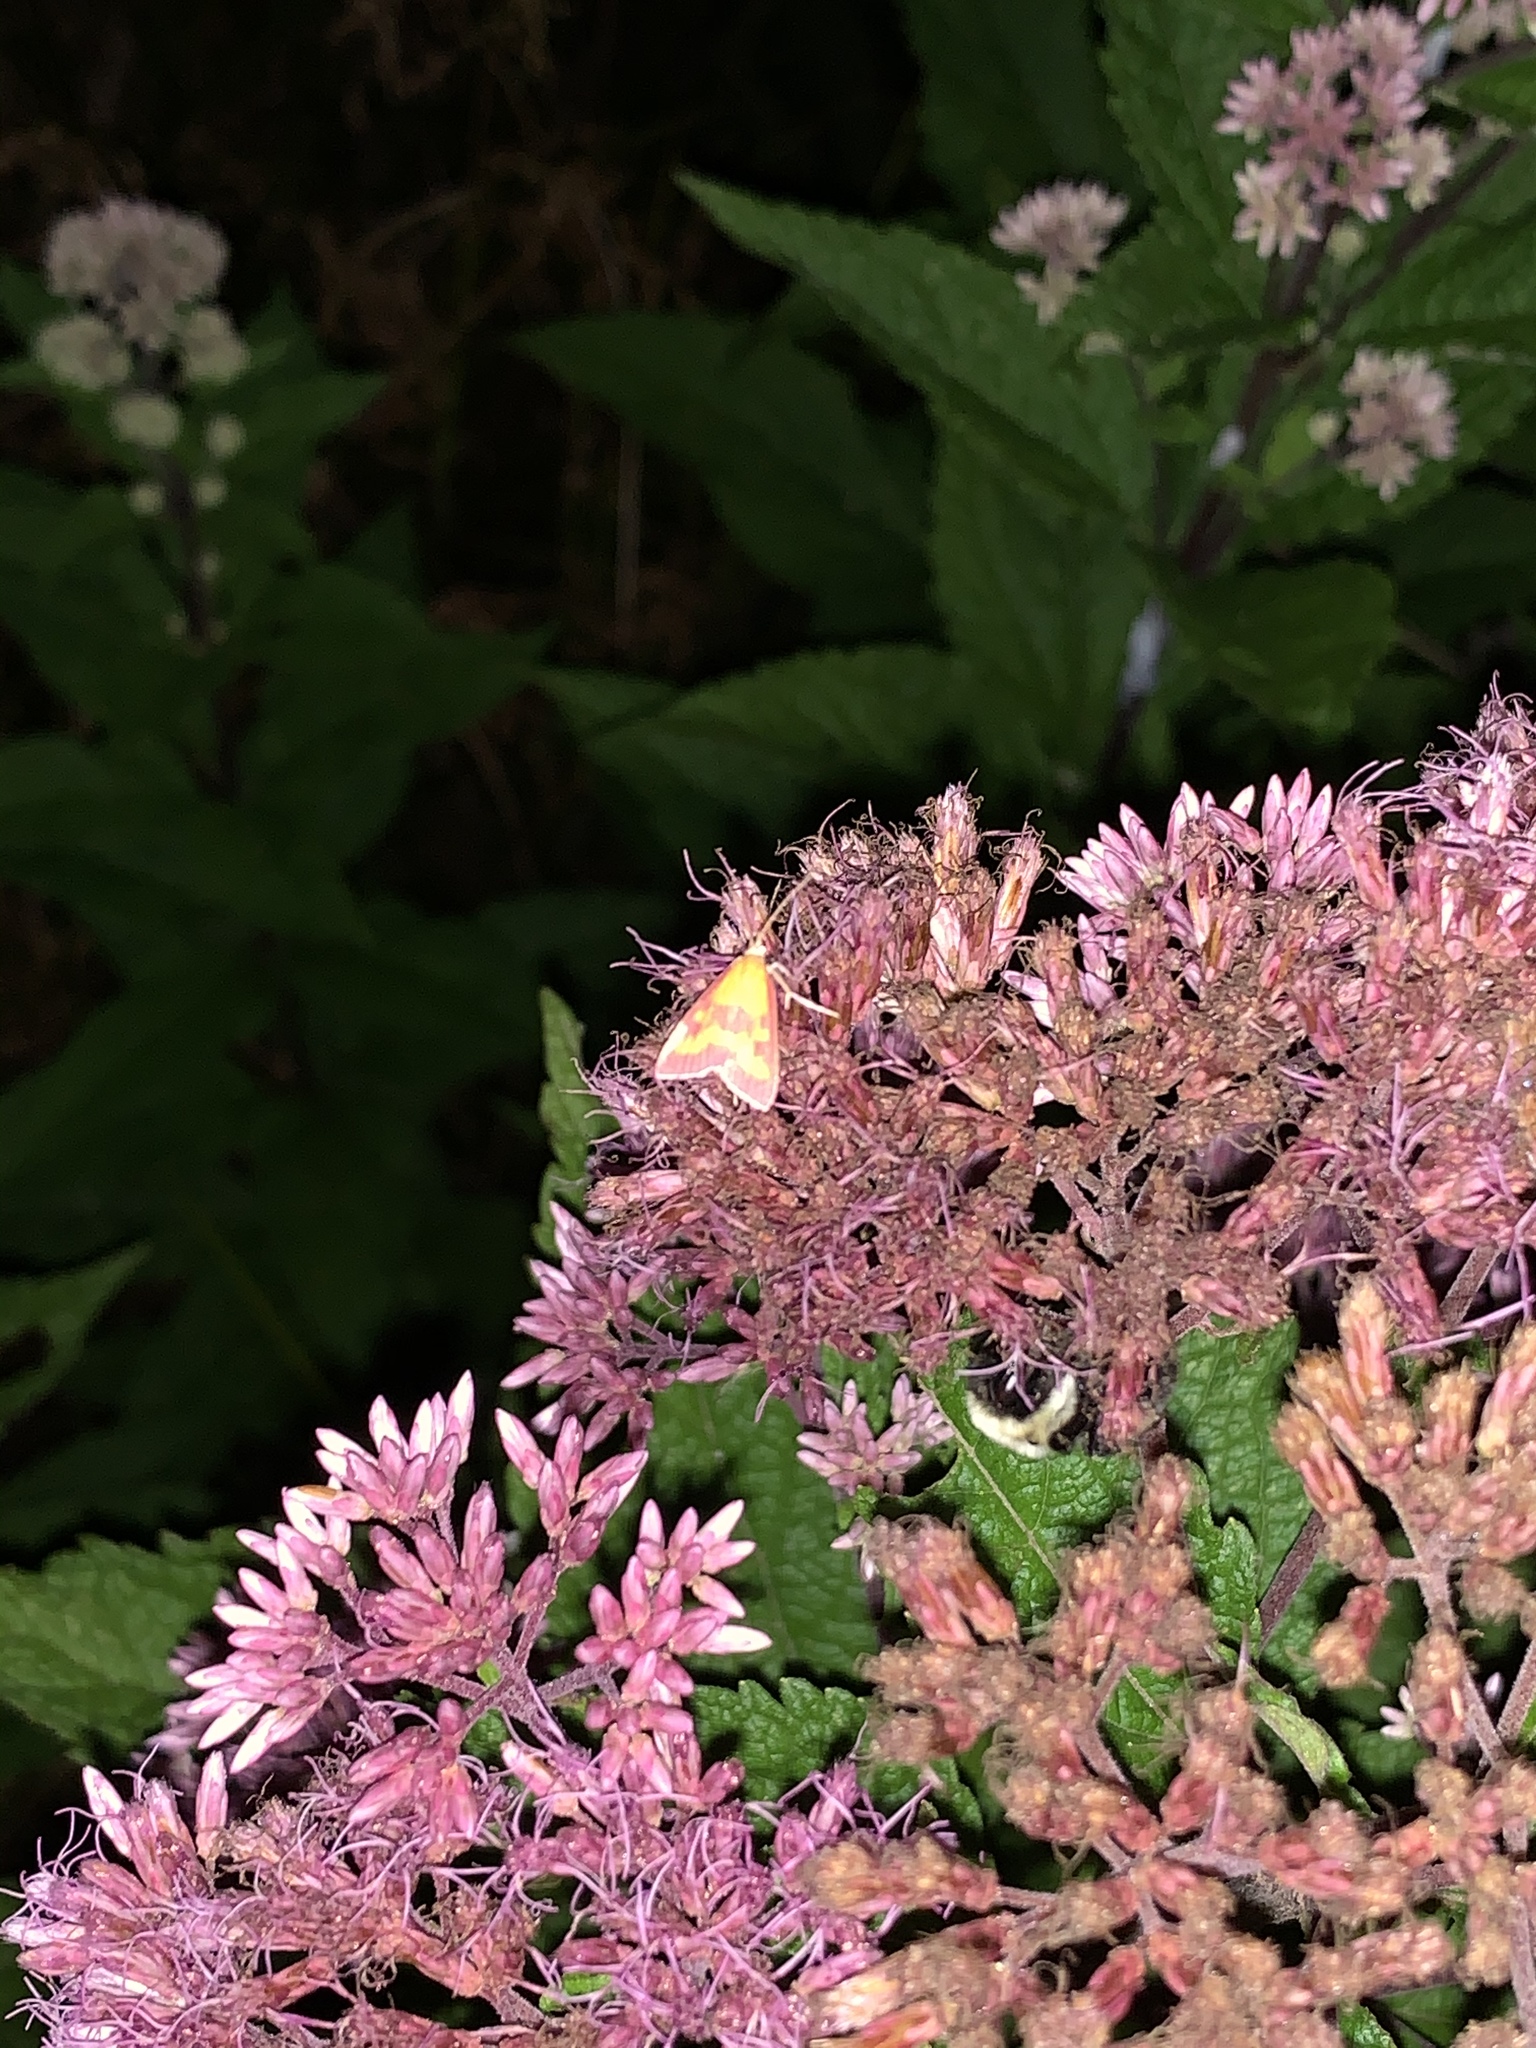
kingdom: Animalia
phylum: Arthropoda
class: Insecta
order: Lepidoptera
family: Crambidae
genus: Pyrausta
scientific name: Pyrausta laticlavia
